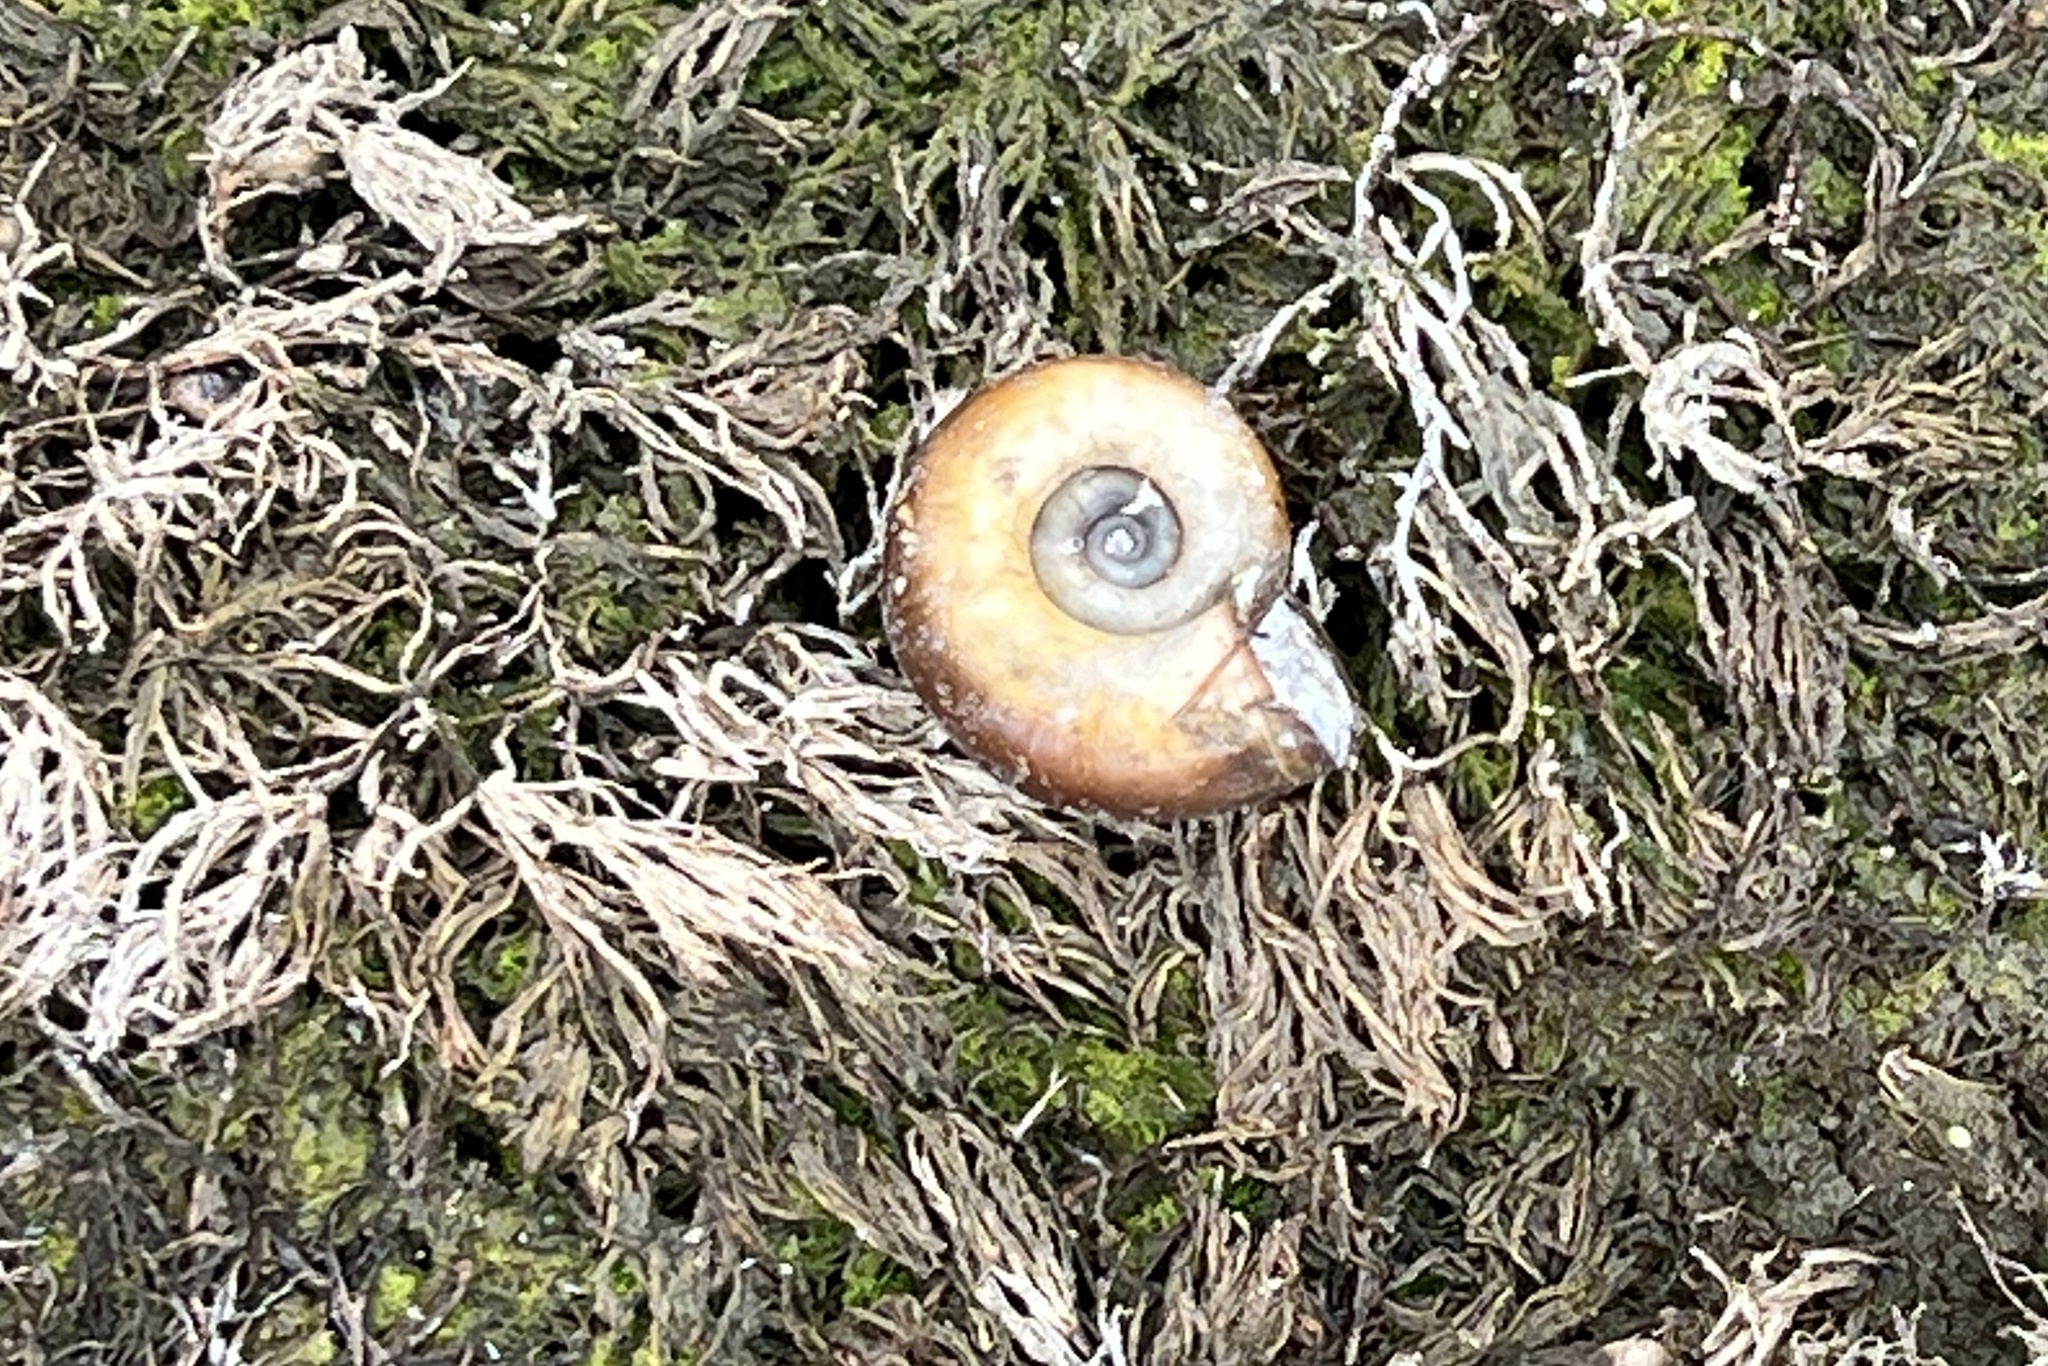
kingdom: Animalia
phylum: Mollusca
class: Gastropoda
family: Planorbidae
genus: Planorbarius
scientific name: Planorbarius corneus
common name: Great ramshorn
